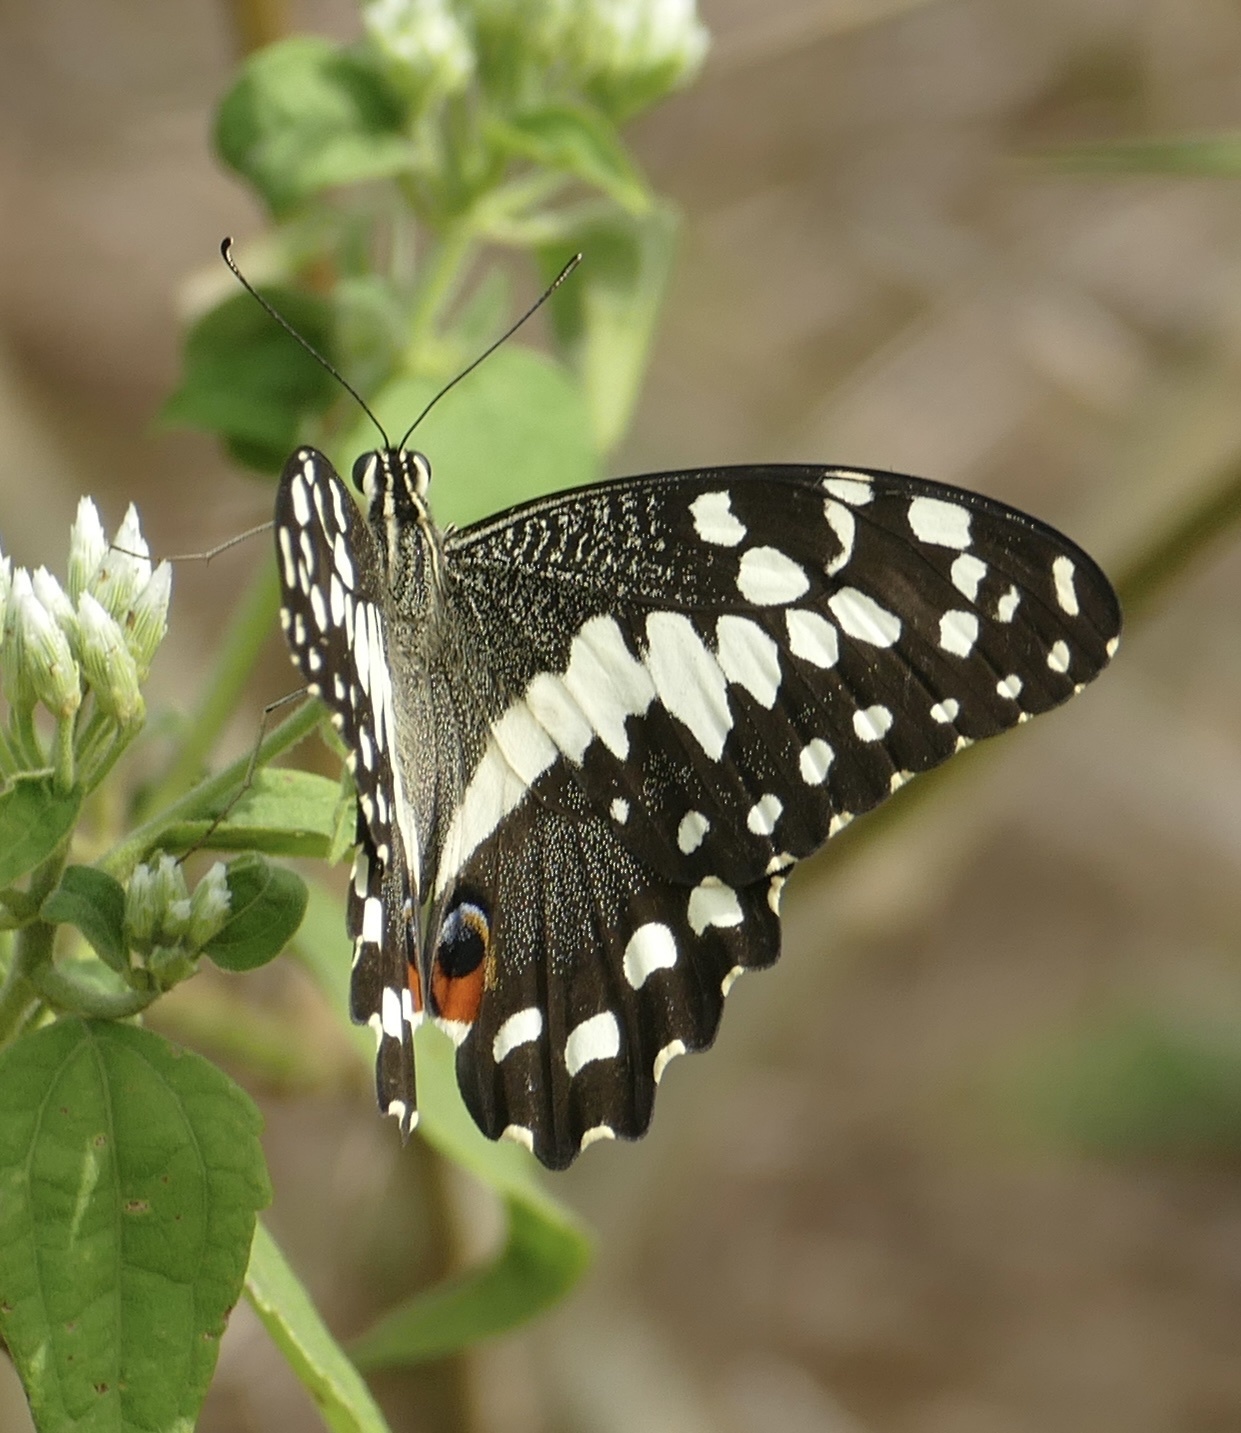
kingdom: Animalia
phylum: Arthropoda
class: Insecta
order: Lepidoptera
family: Papilionidae
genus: Papilio
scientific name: Papilio demodocus
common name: Christmas butterfly
